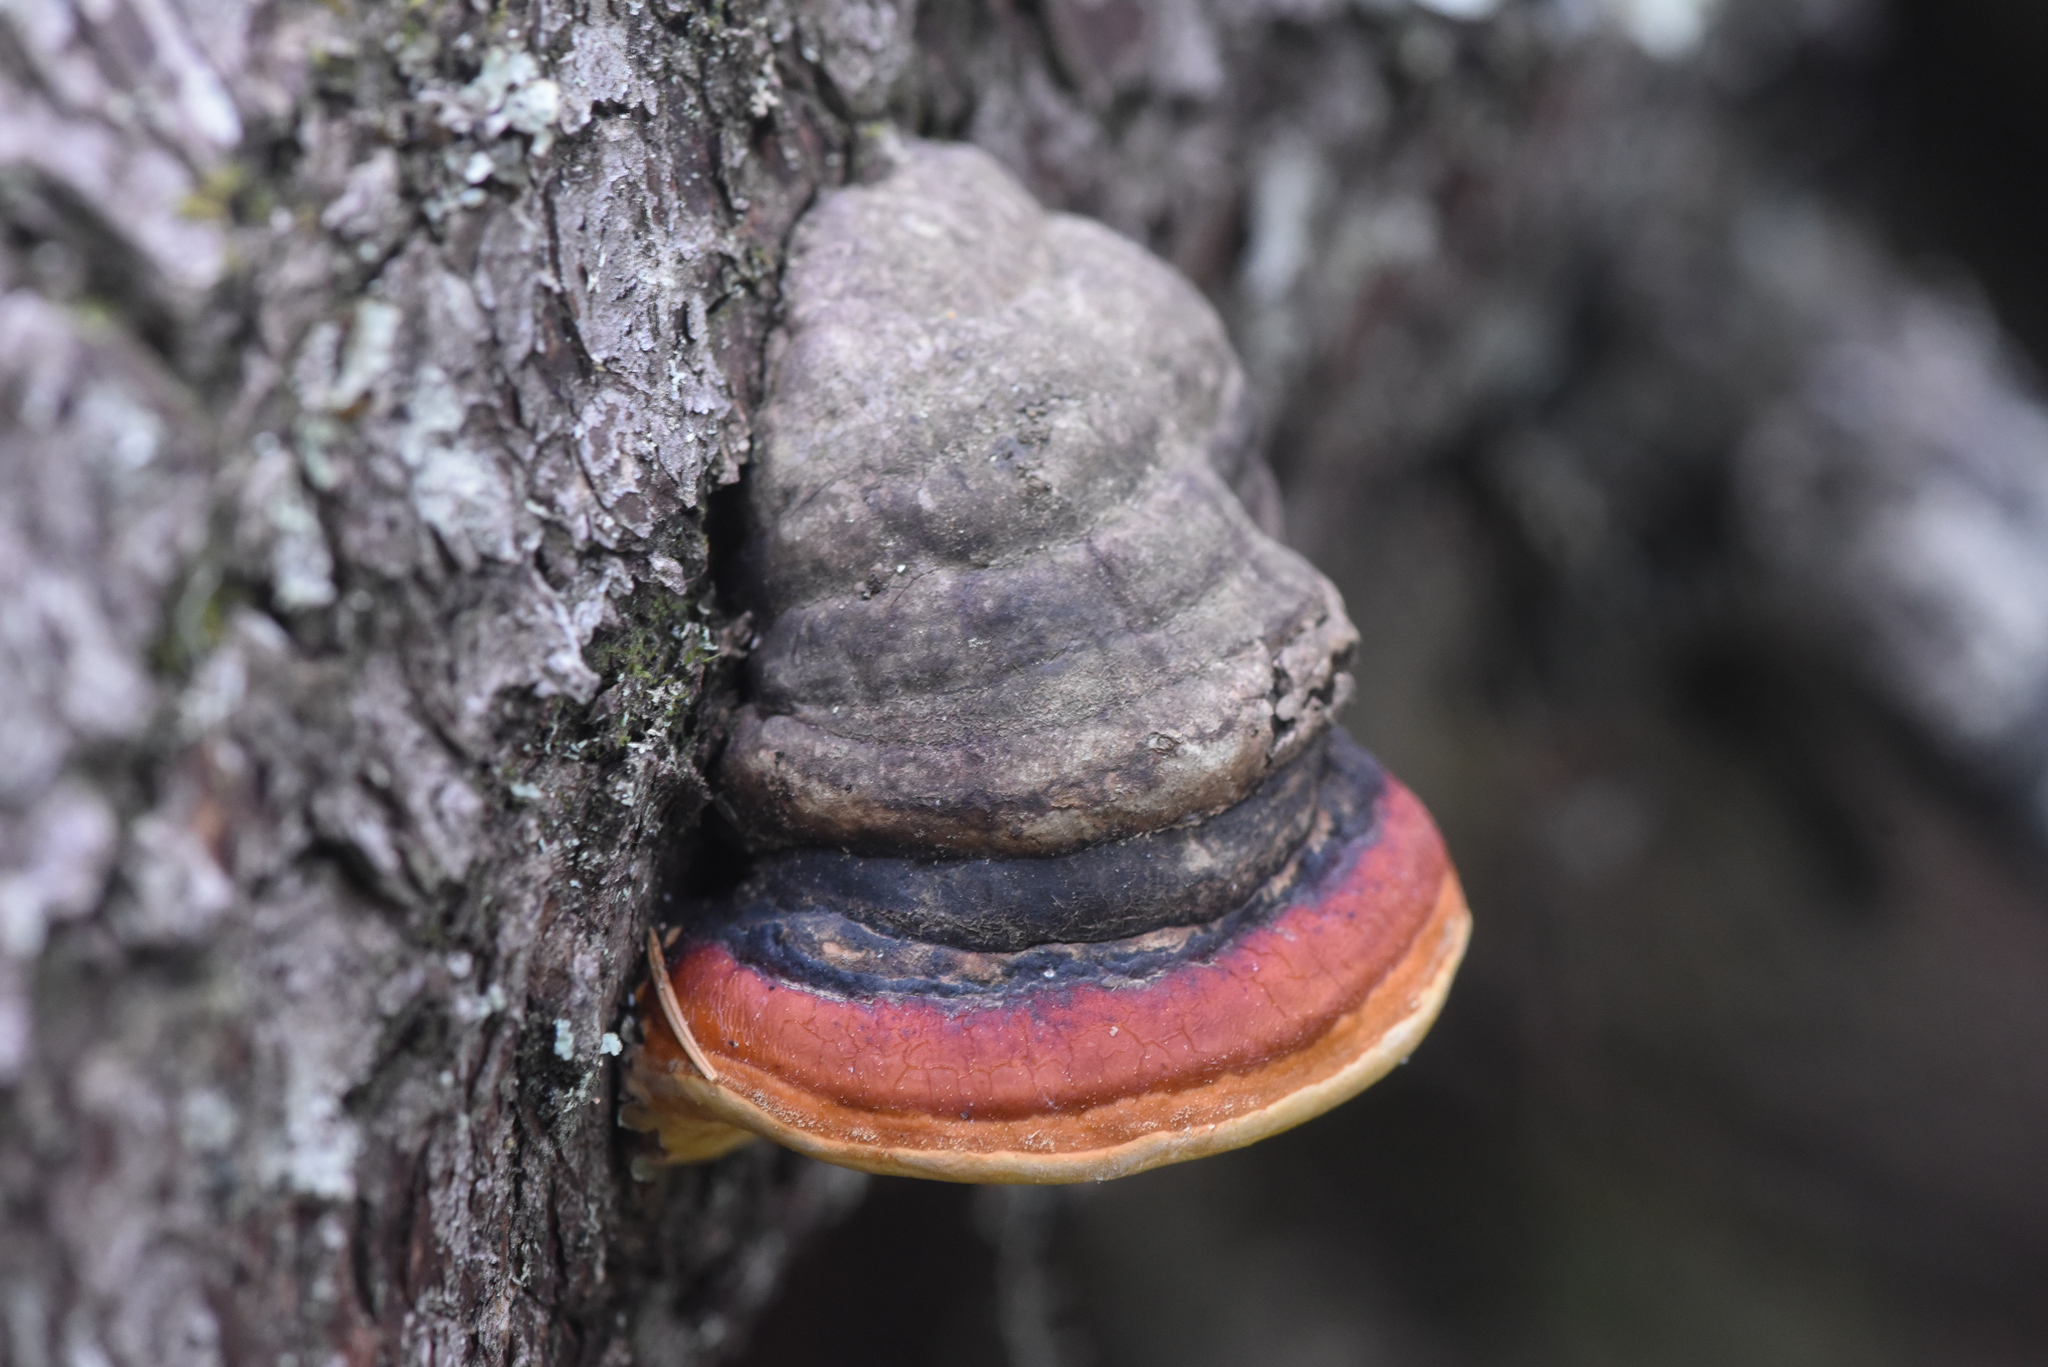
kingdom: Fungi
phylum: Basidiomycota
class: Agaricomycetes
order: Polyporales
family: Fomitopsidaceae
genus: Fomitopsis
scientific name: Fomitopsis mounceae
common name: Northern red belt
